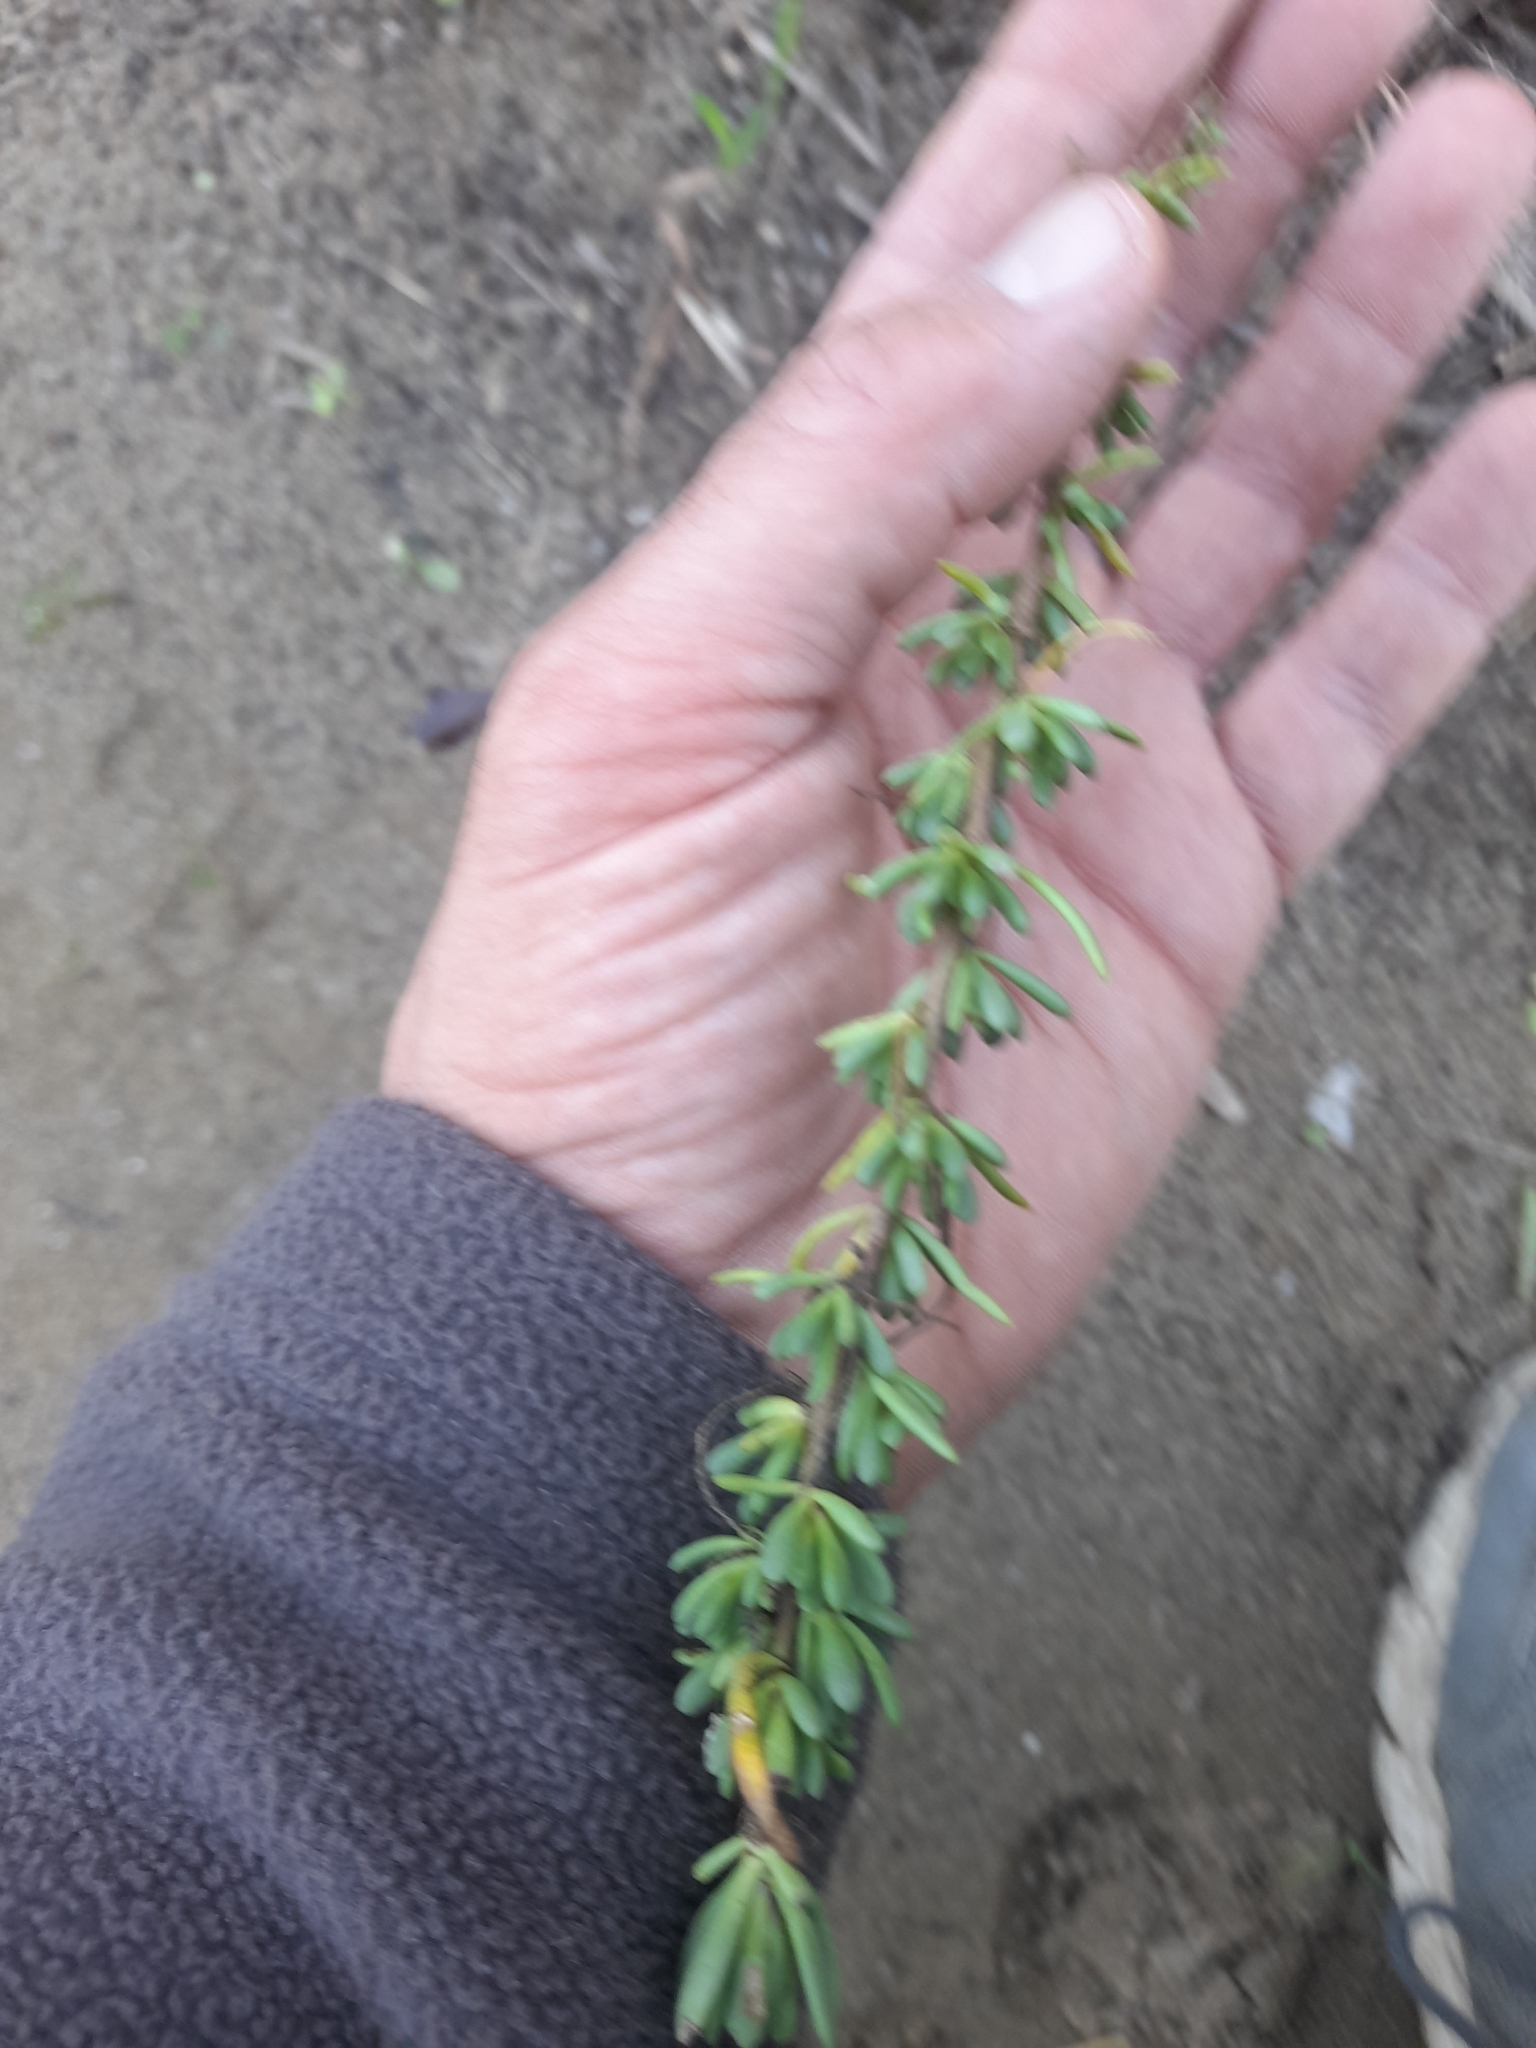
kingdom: Plantae
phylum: Tracheophyta
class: Magnoliopsida
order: Asterales
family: Asteraceae
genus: Limbarda
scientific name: Limbarda crithmoides
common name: Golden samphire
